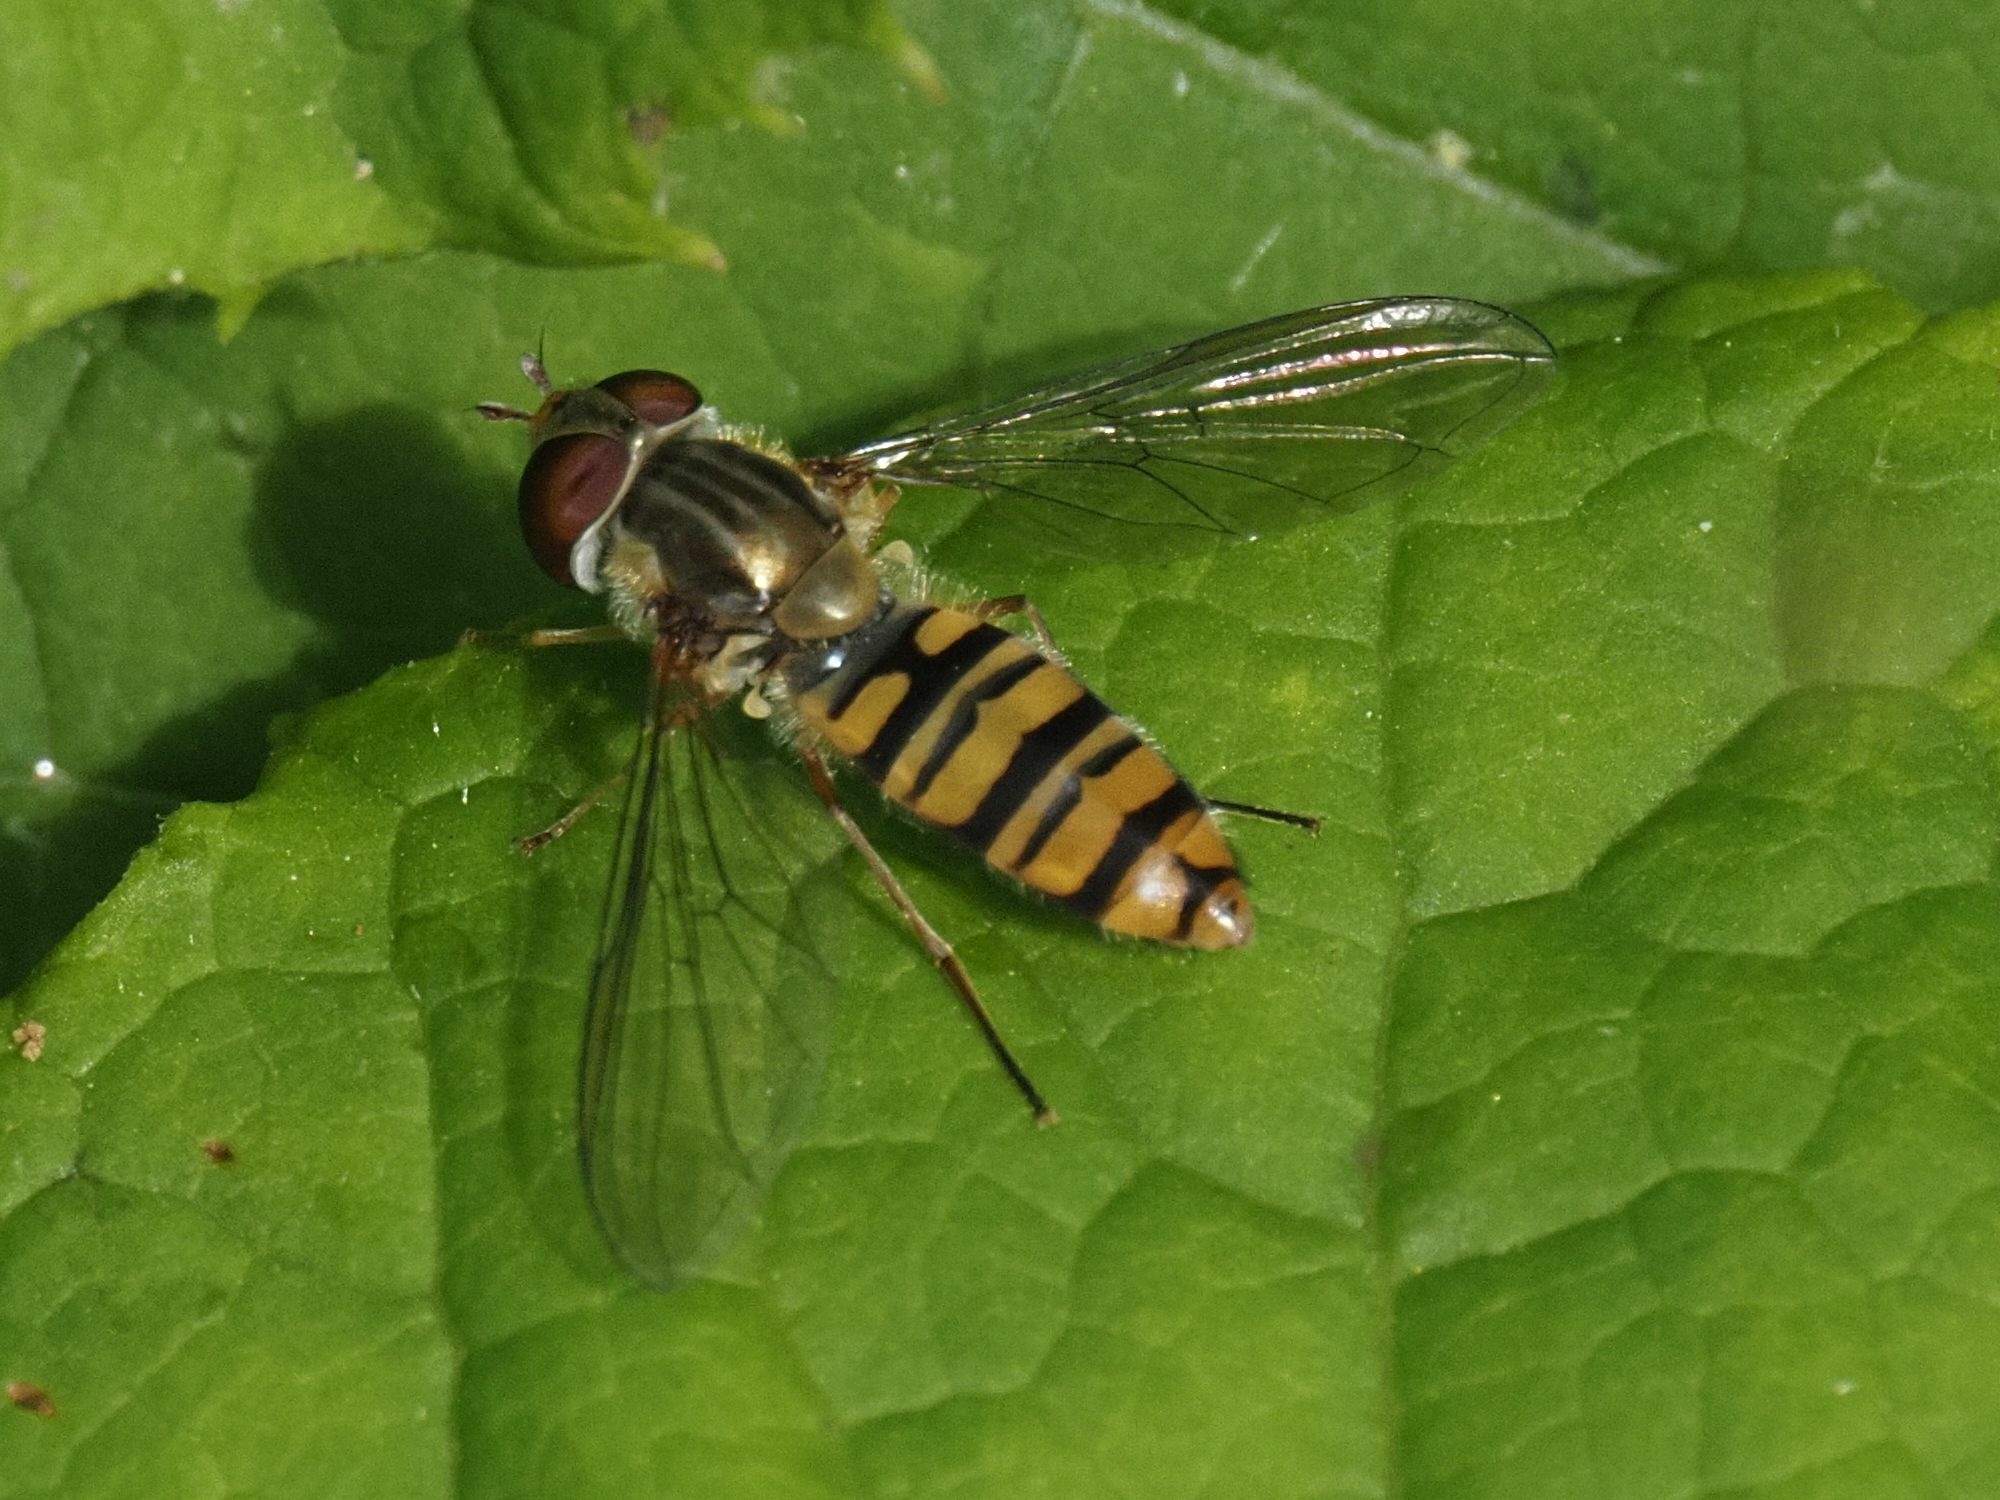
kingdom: Animalia
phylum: Arthropoda
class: Insecta
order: Diptera
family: Syrphidae
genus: Episyrphus
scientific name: Episyrphus balteatus
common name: Marmalade hoverfly
